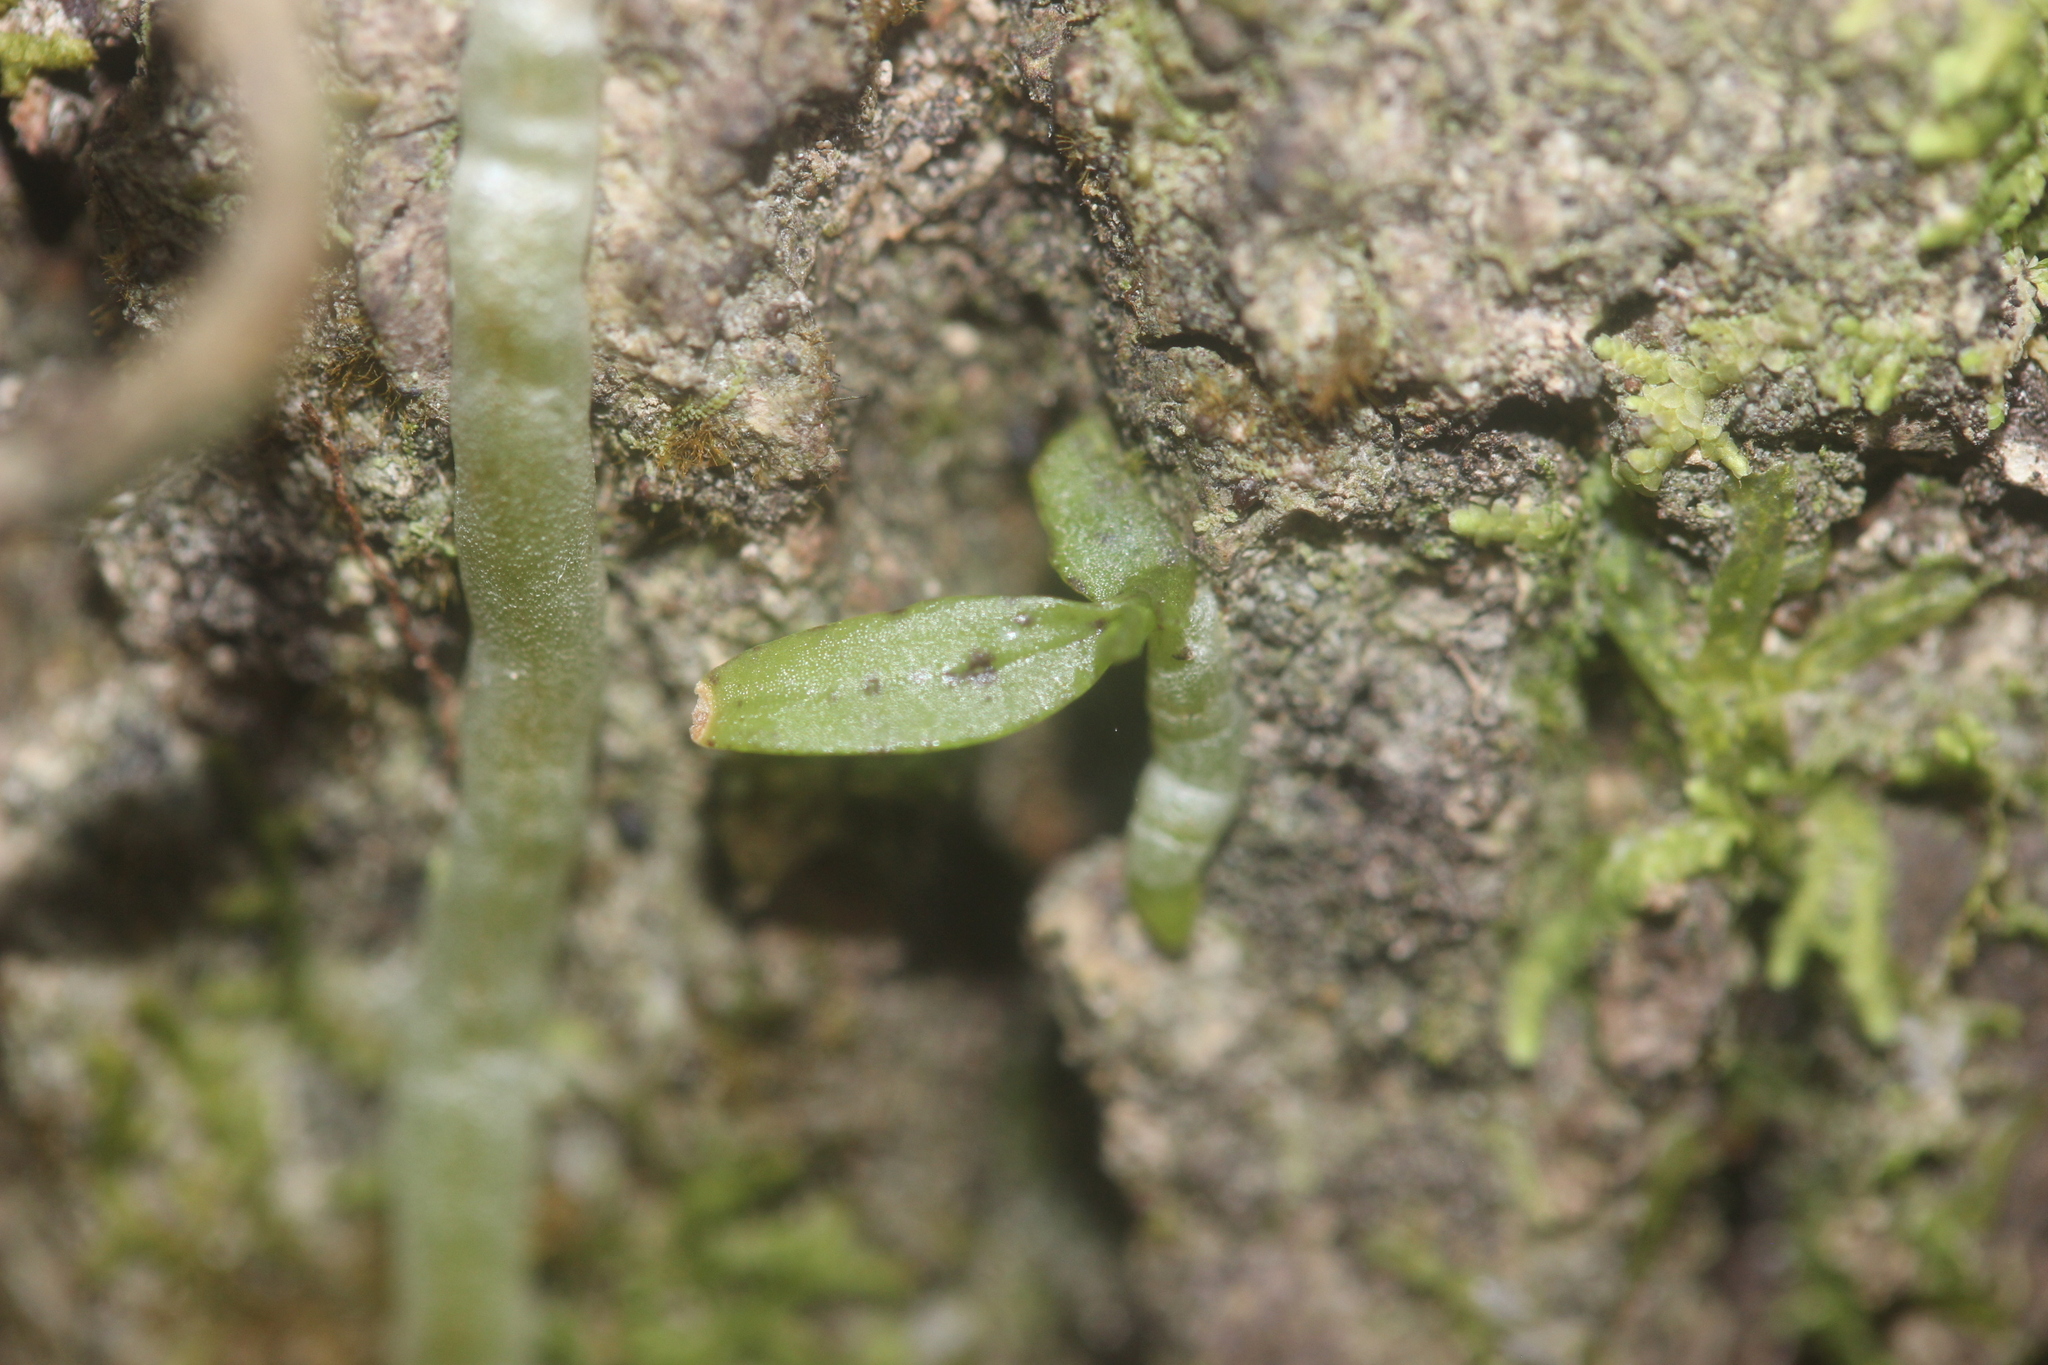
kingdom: Plantae
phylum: Tracheophyta
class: Liliopsida
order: Asparagales
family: Orchidaceae
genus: Drymoanthus
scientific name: Drymoanthus flavus
